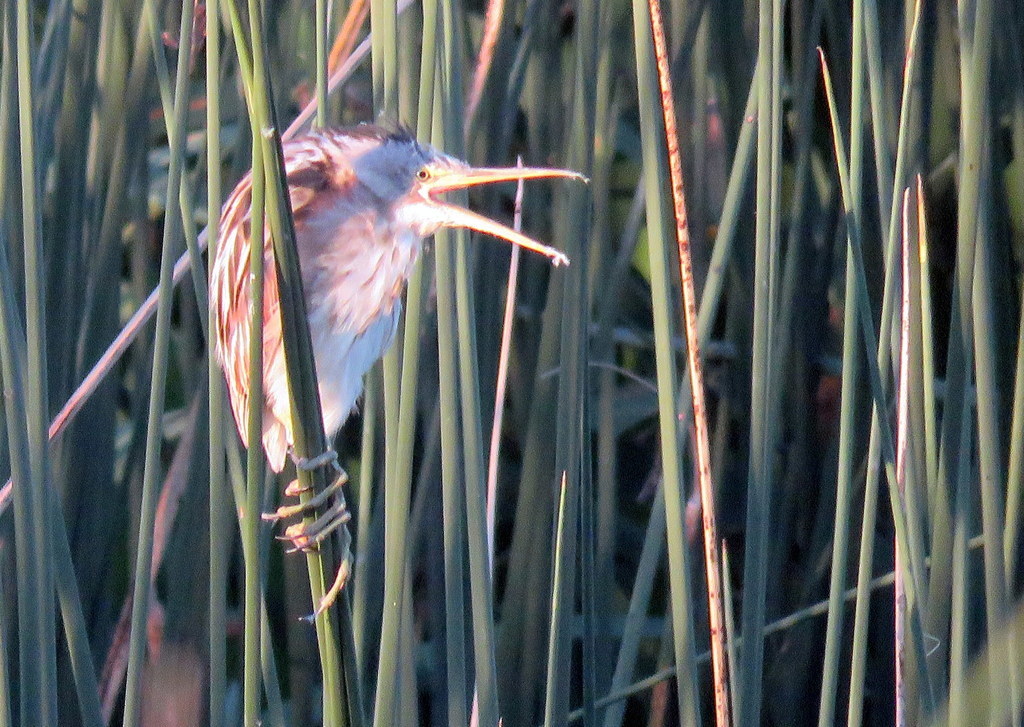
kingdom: Animalia
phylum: Chordata
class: Aves
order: Pelecaniformes
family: Ardeidae
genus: Ixobrychus
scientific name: Ixobrychus involucris
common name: Stripe-backed bittern
